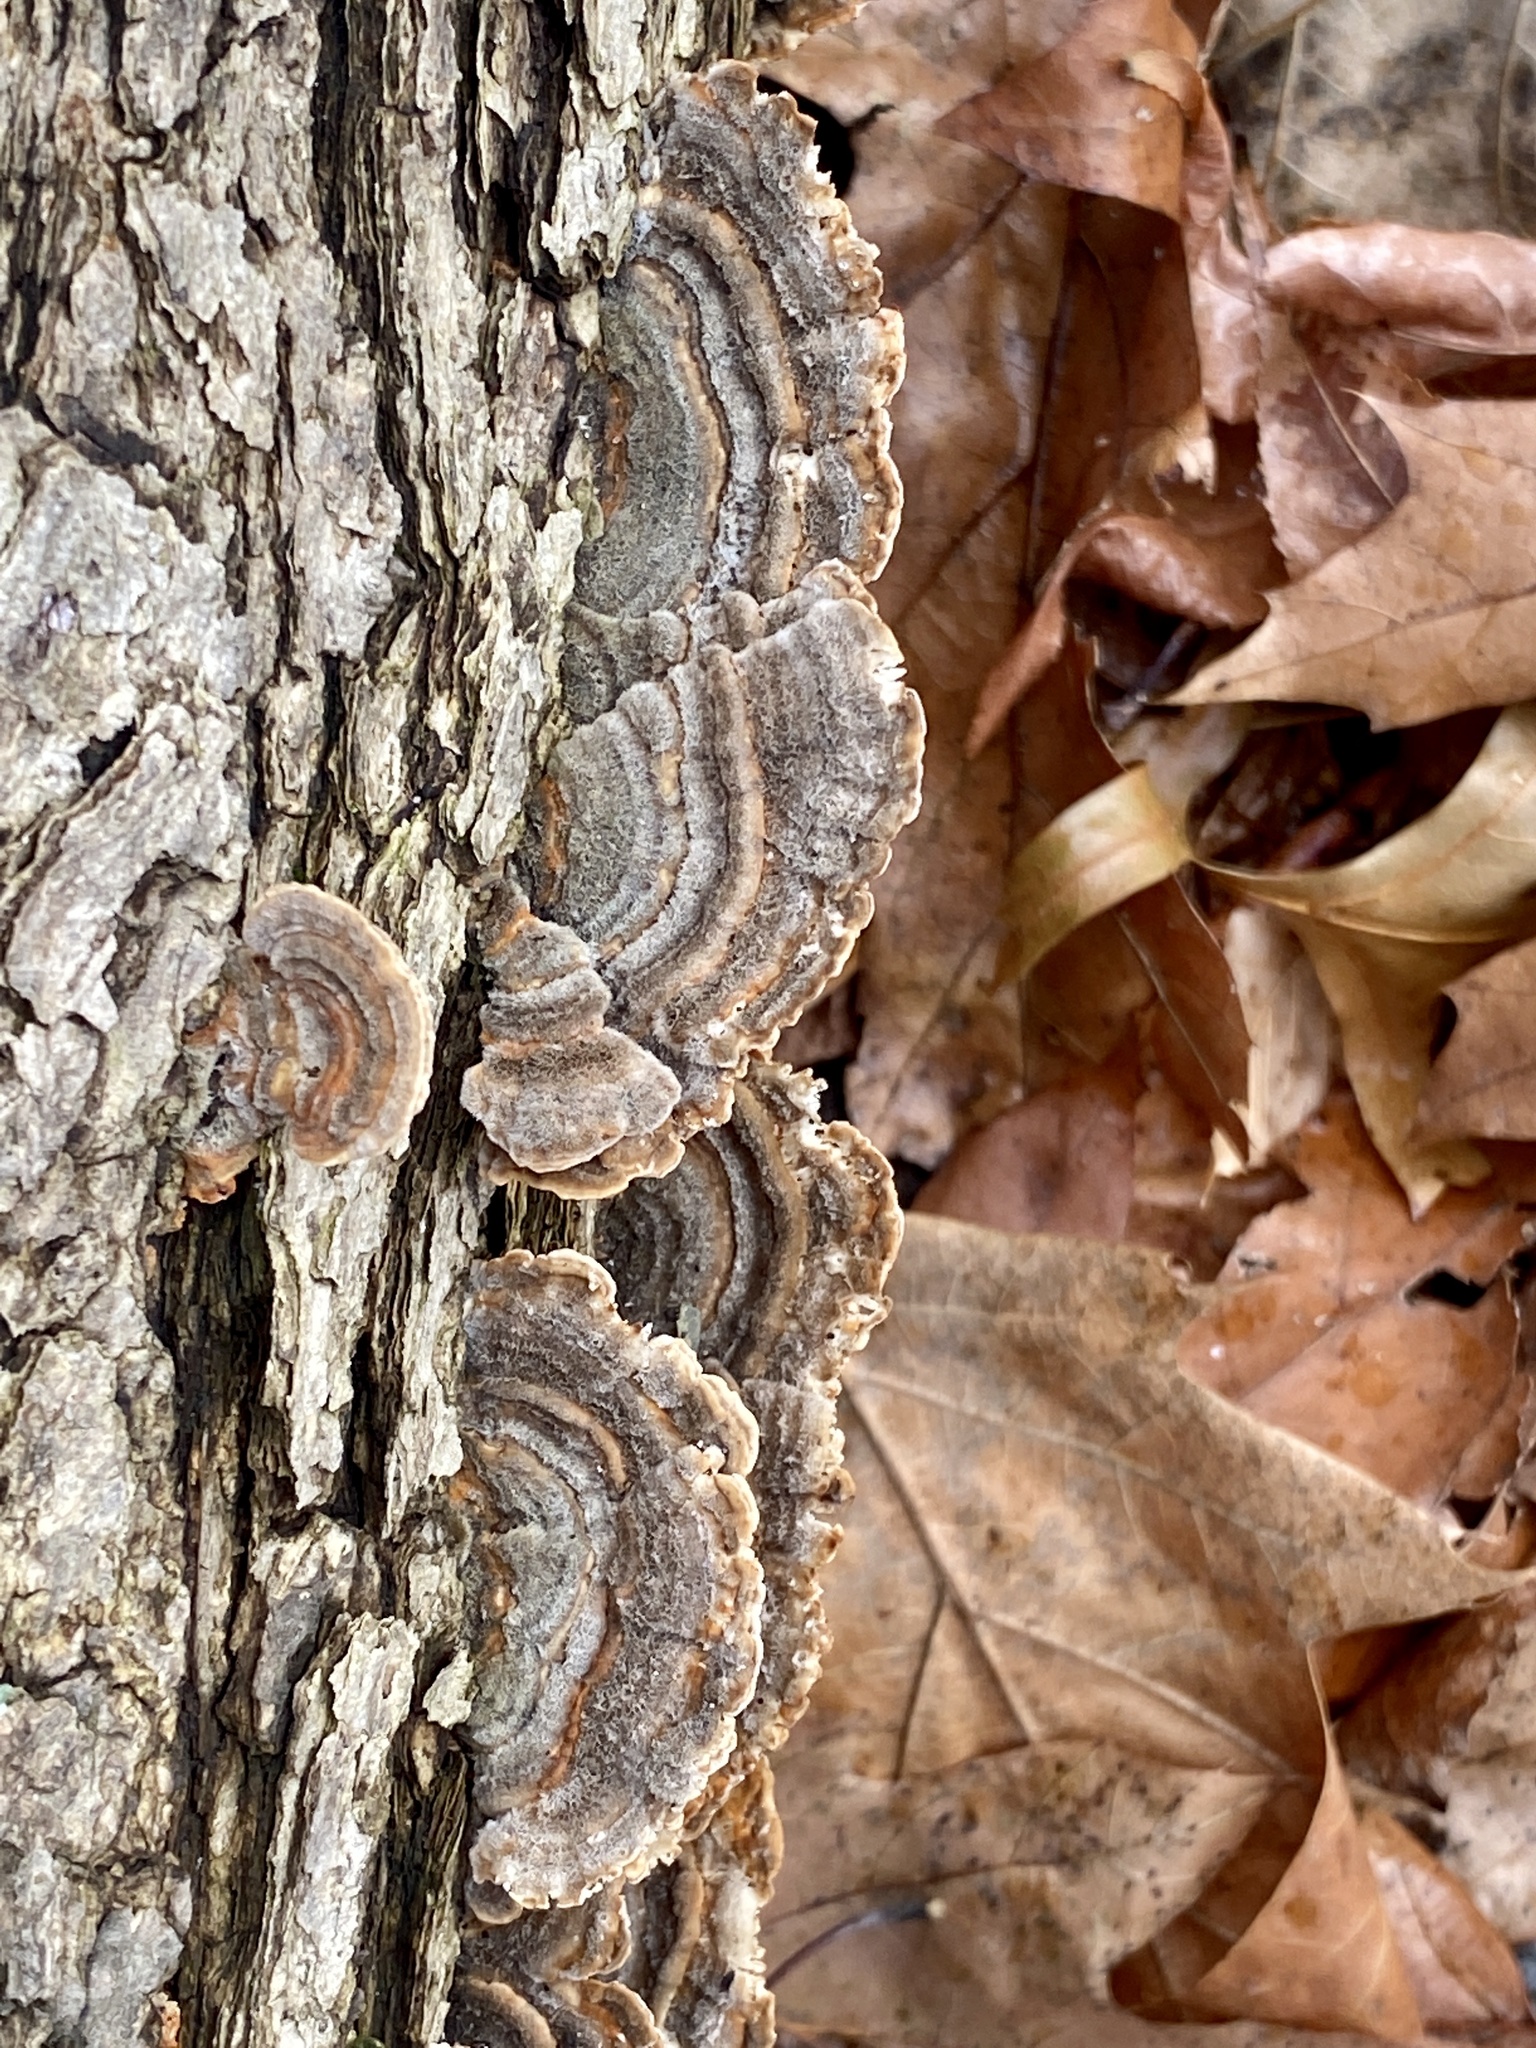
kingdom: Fungi
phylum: Basidiomycota
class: Agaricomycetes
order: Polyporales
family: Polyporaceae
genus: Lenzites
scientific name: Lenzites betulinus
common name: Birch mazegill
